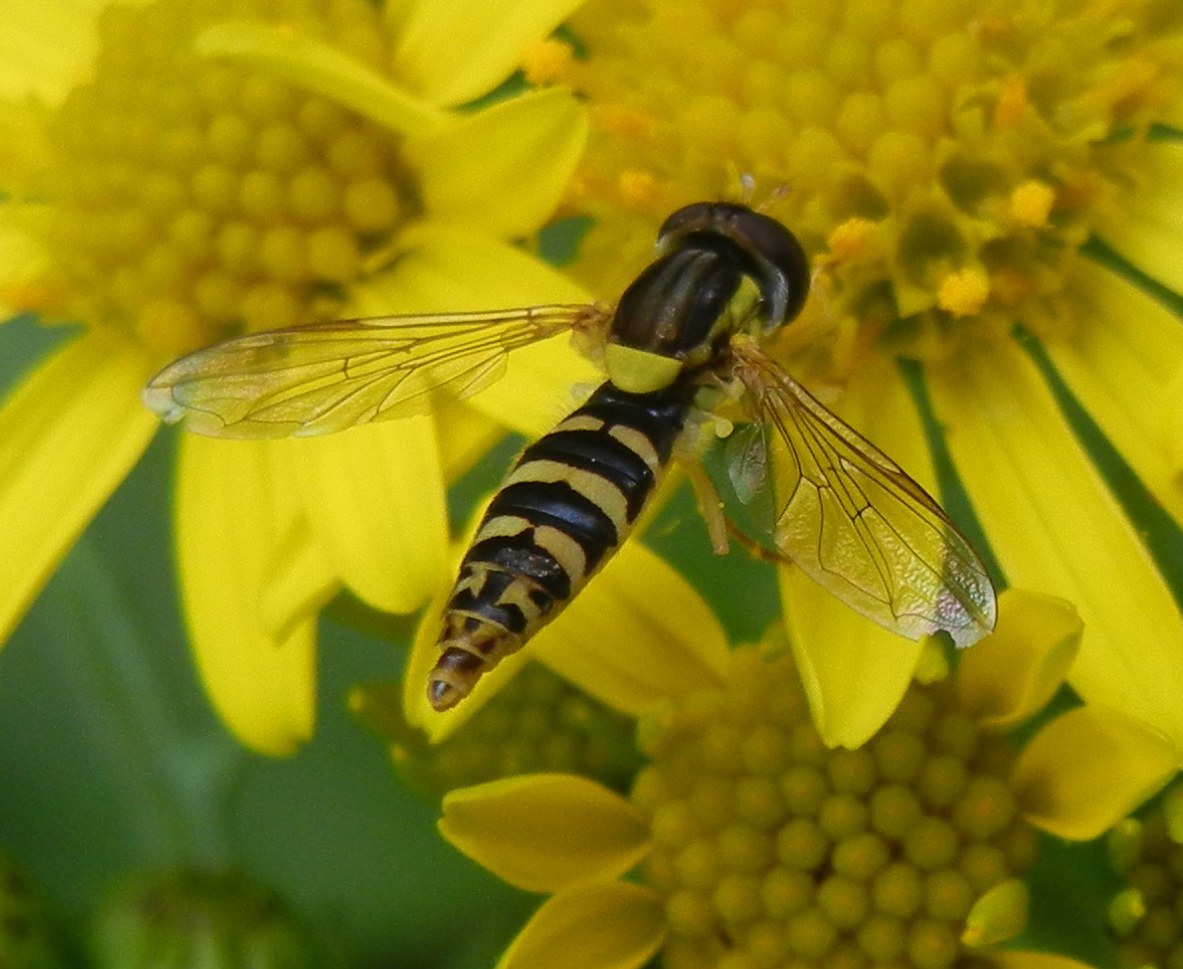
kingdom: Animalia
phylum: Arthropoda
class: Insecta
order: Diptera
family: Syrphidae
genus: Sphaerophoria
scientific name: Sphaerophoria
